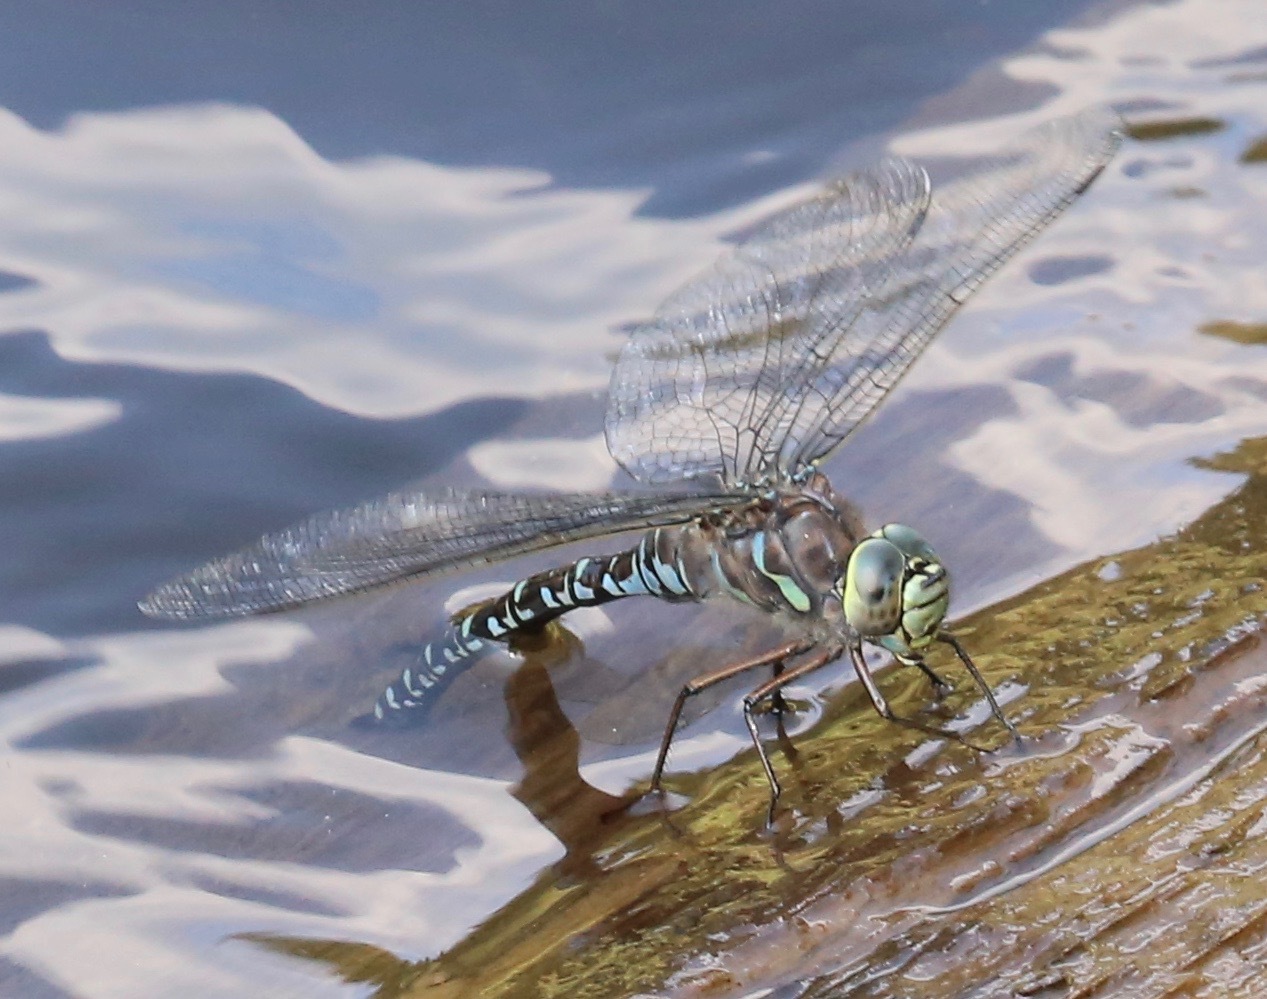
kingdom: Animalia
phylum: Arthropoda
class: Insecta
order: Odonata
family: Aeshnidae
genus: Aeshna
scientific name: Aeshna eremita
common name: Lake darner
